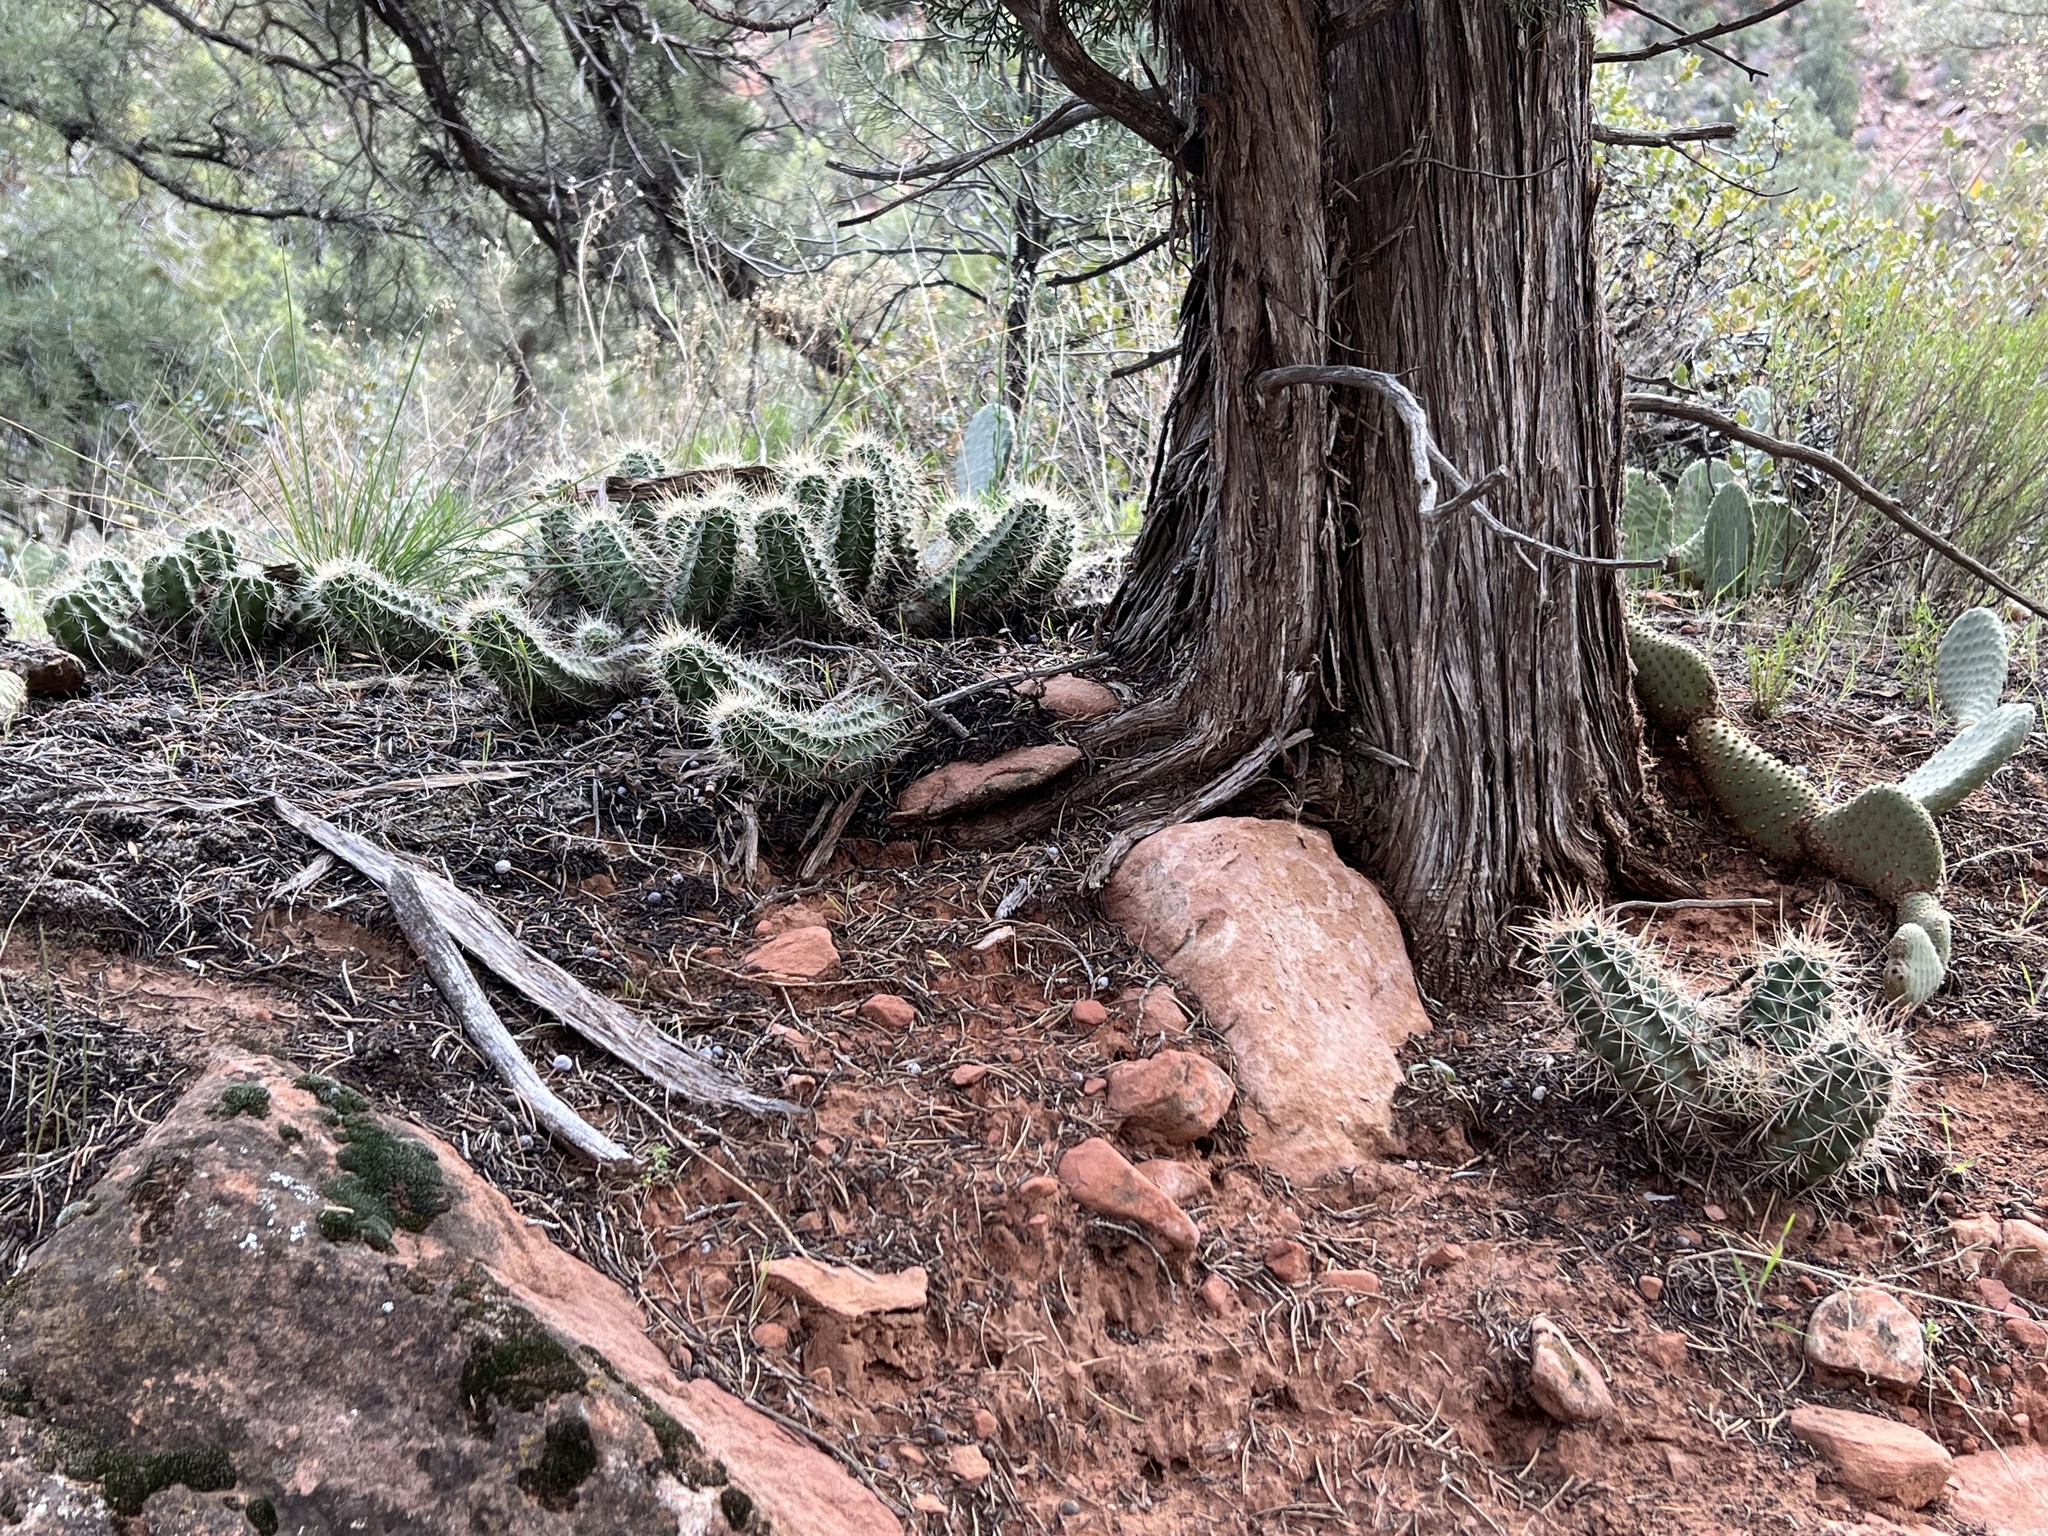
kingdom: Plantae
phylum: Tracheophyta
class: Magnoliopsida
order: Caryophyllales
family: Cactaceae
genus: Echinocereus
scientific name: Echinocereus triglochidiatus
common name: Claretcup hedgehog
